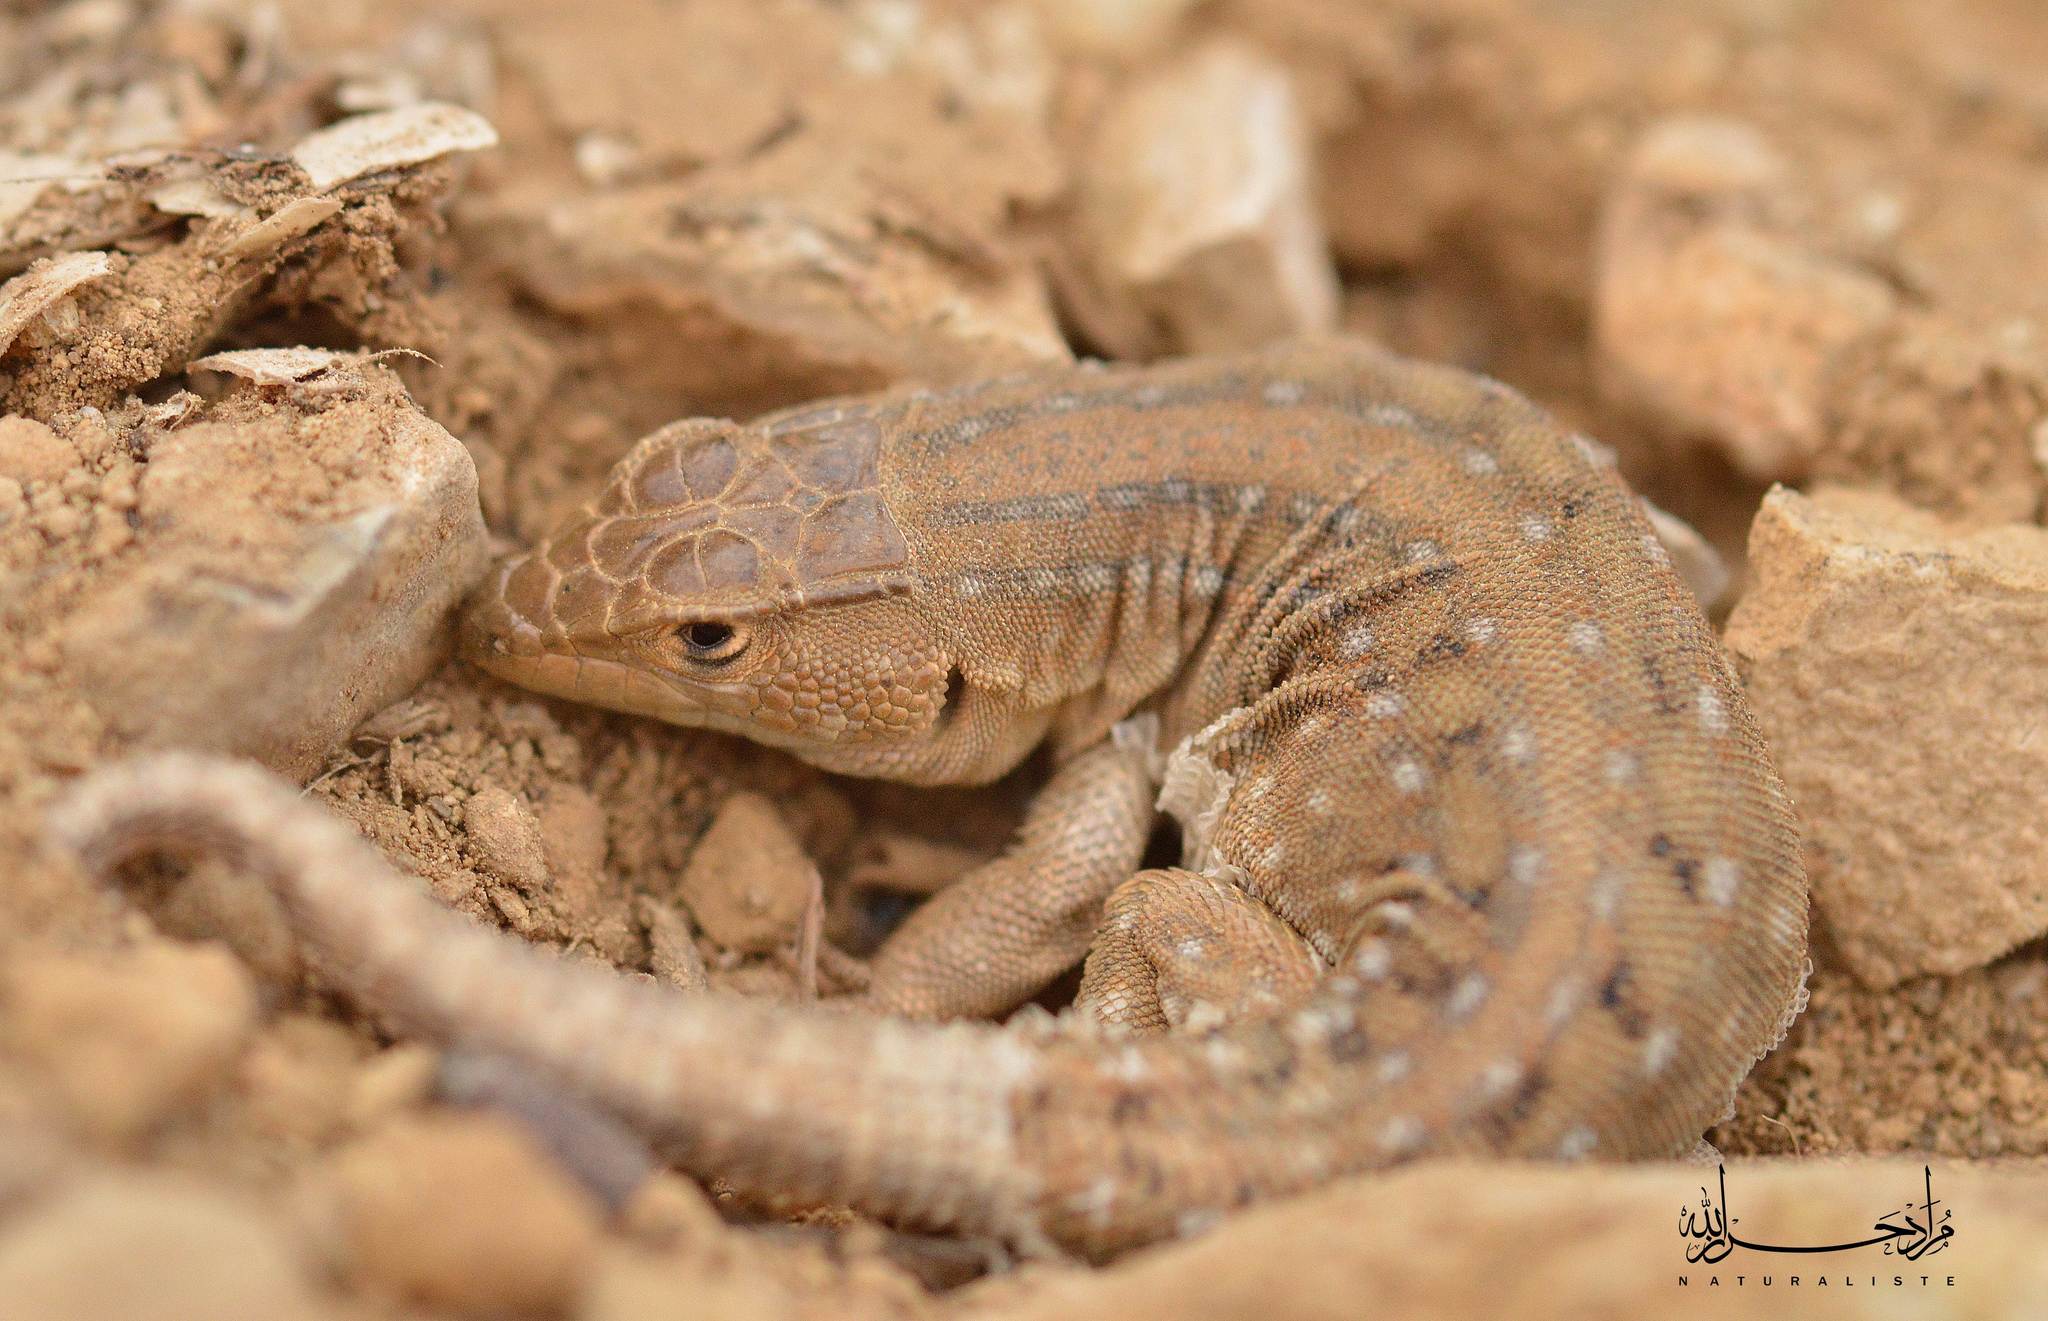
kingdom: Animalia
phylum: Chordata
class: Squamata
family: Lacertidae
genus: Acanthodactylus
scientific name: Acanthodactylus erythrurus
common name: Spiny-footed lizard
